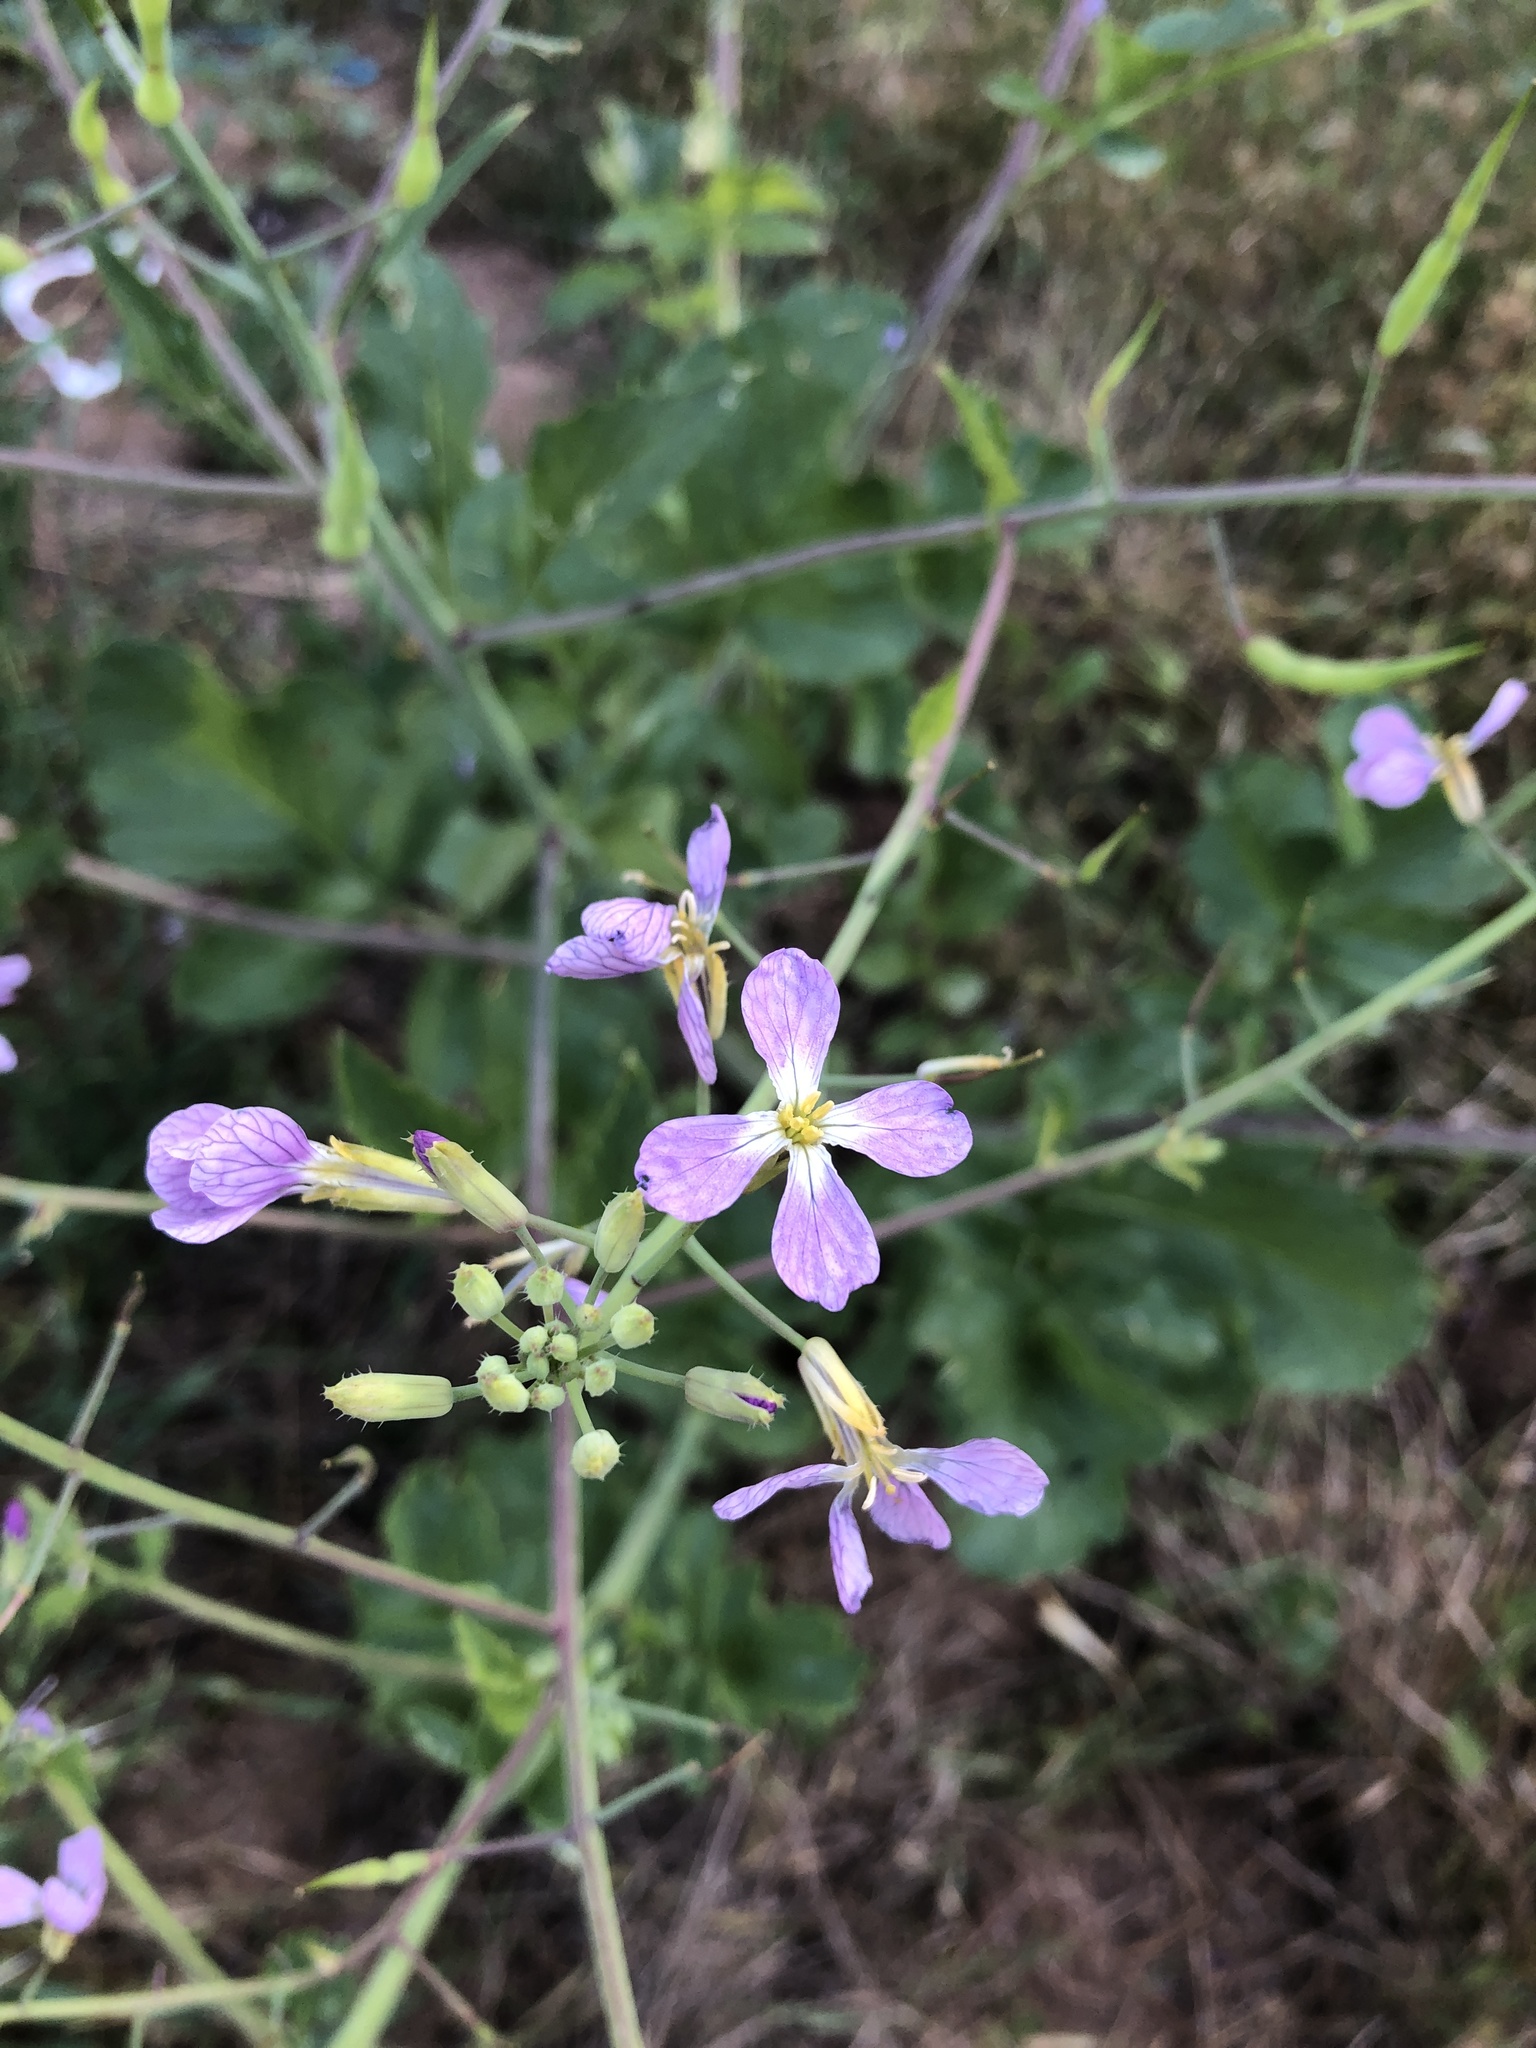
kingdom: Plantae
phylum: Tracheophyta
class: Magnoliopsida
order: Brassicales
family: Brassicaceae
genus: Raphanus
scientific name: Raphanus sativus
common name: Cultivated radish
